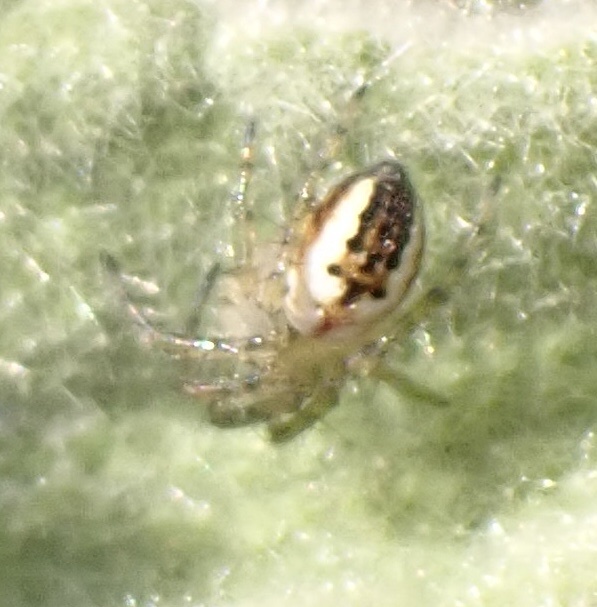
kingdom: Animalia
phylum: Arthropoda
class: Arachnida
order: Araneae
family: Araneidae
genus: Mangora
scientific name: Mangora acalypha
